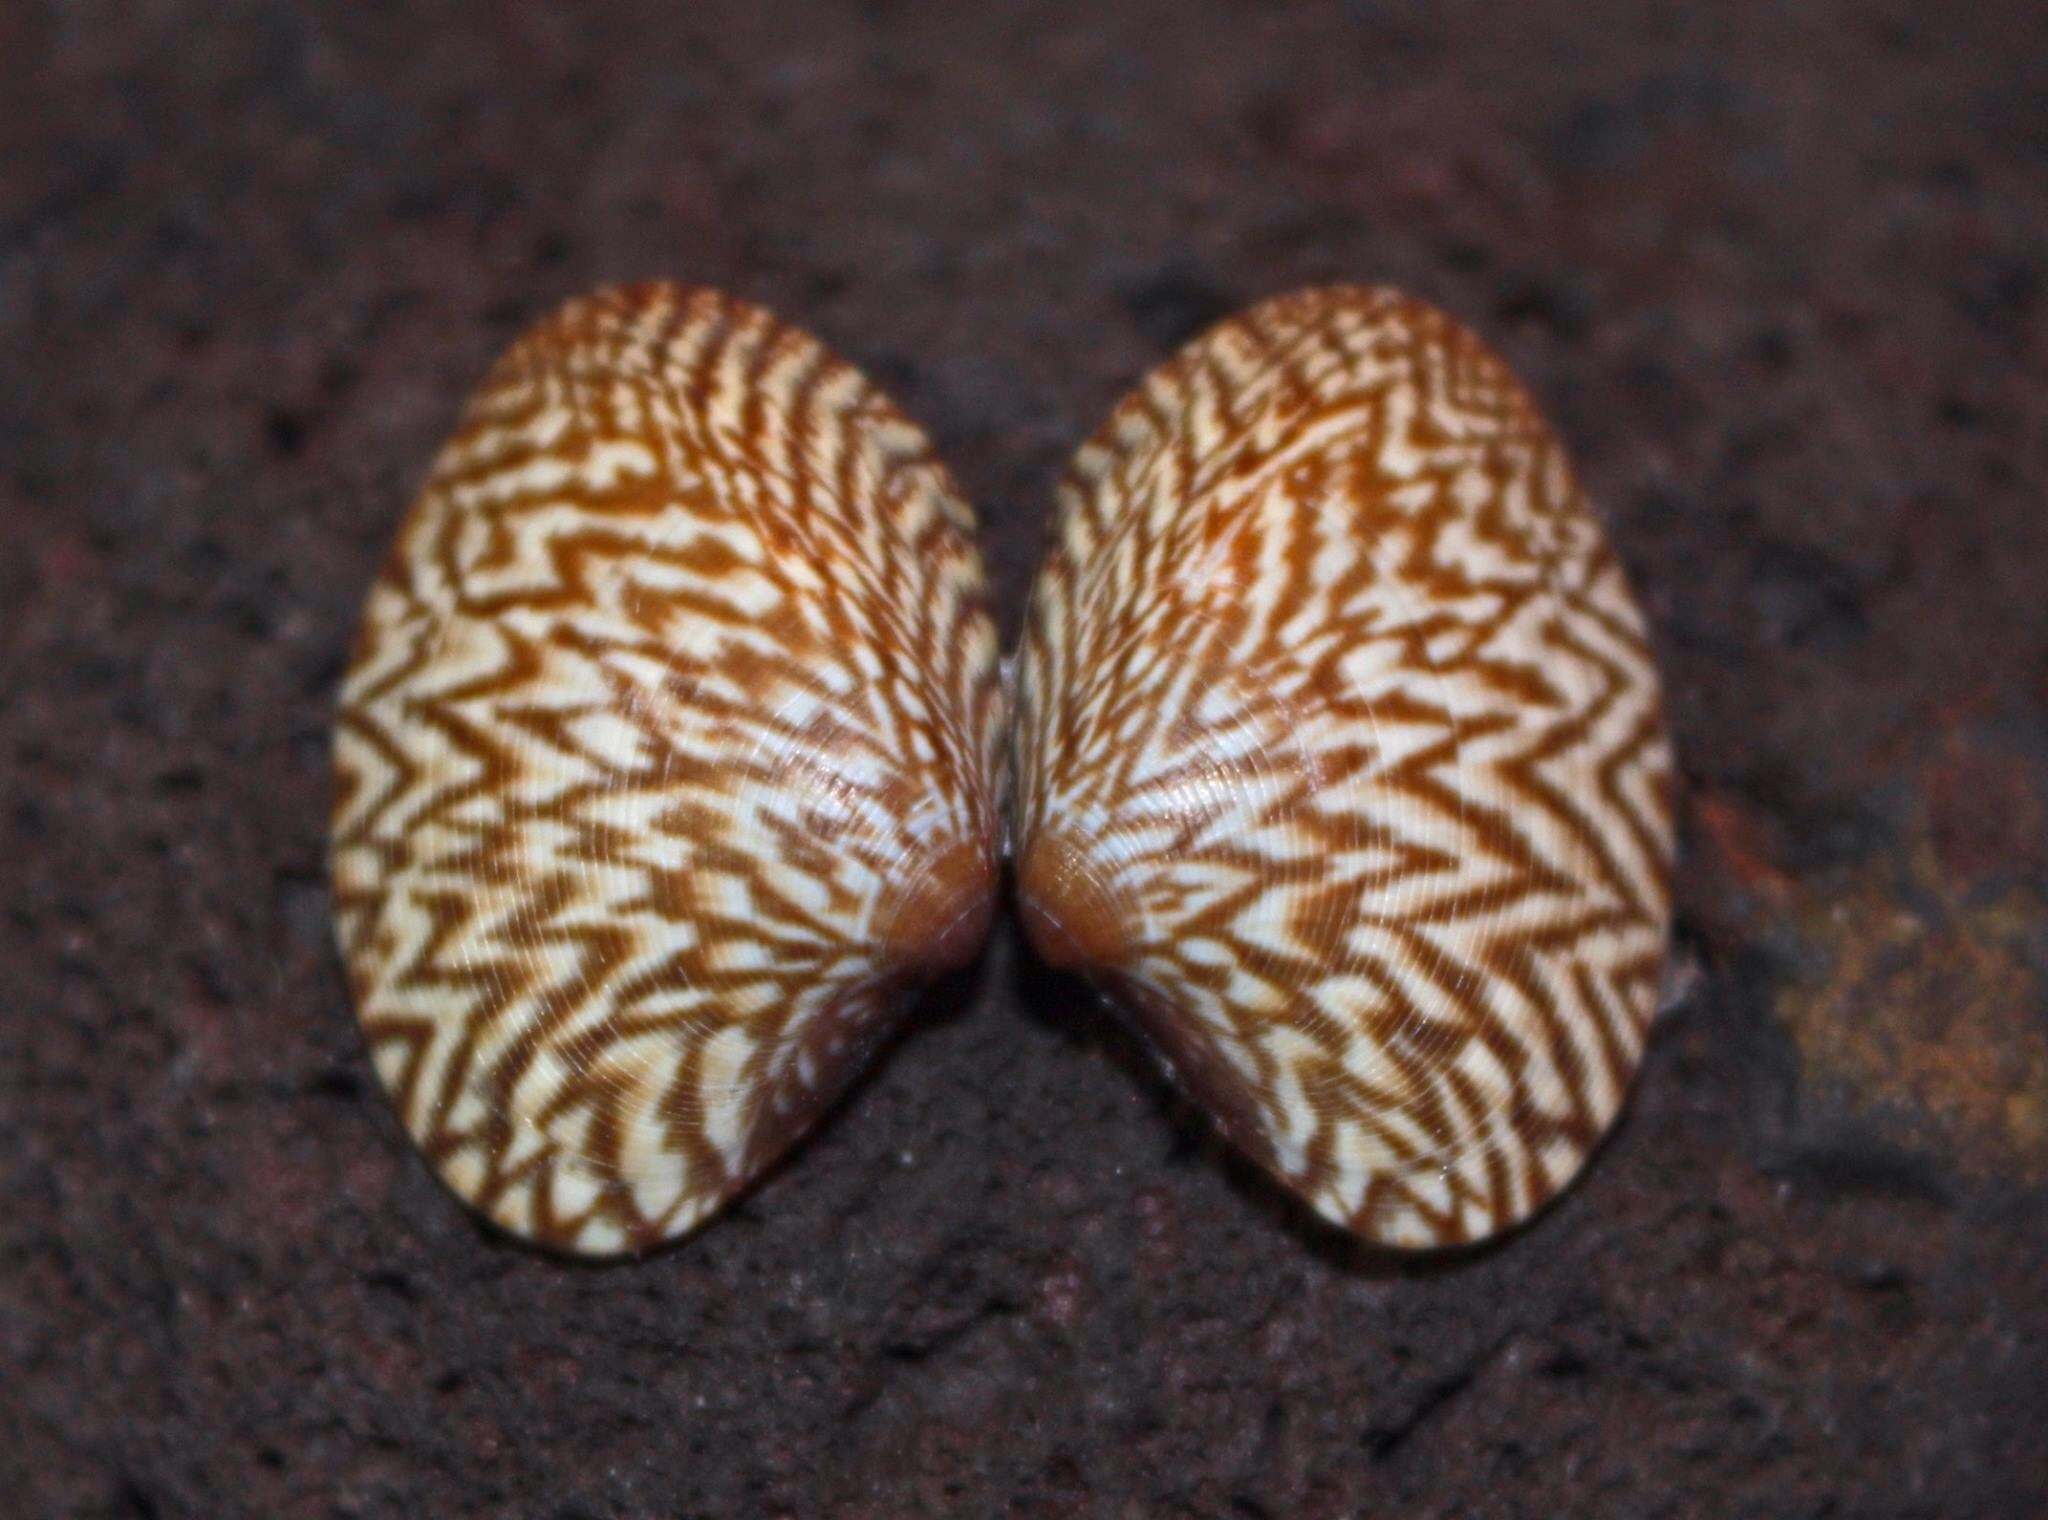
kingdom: Animalia
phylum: Mollusca
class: Bivalvia
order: Venerida
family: Veneridae
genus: Polititapes
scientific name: Polititapes aureus
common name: Golden carpet shell
